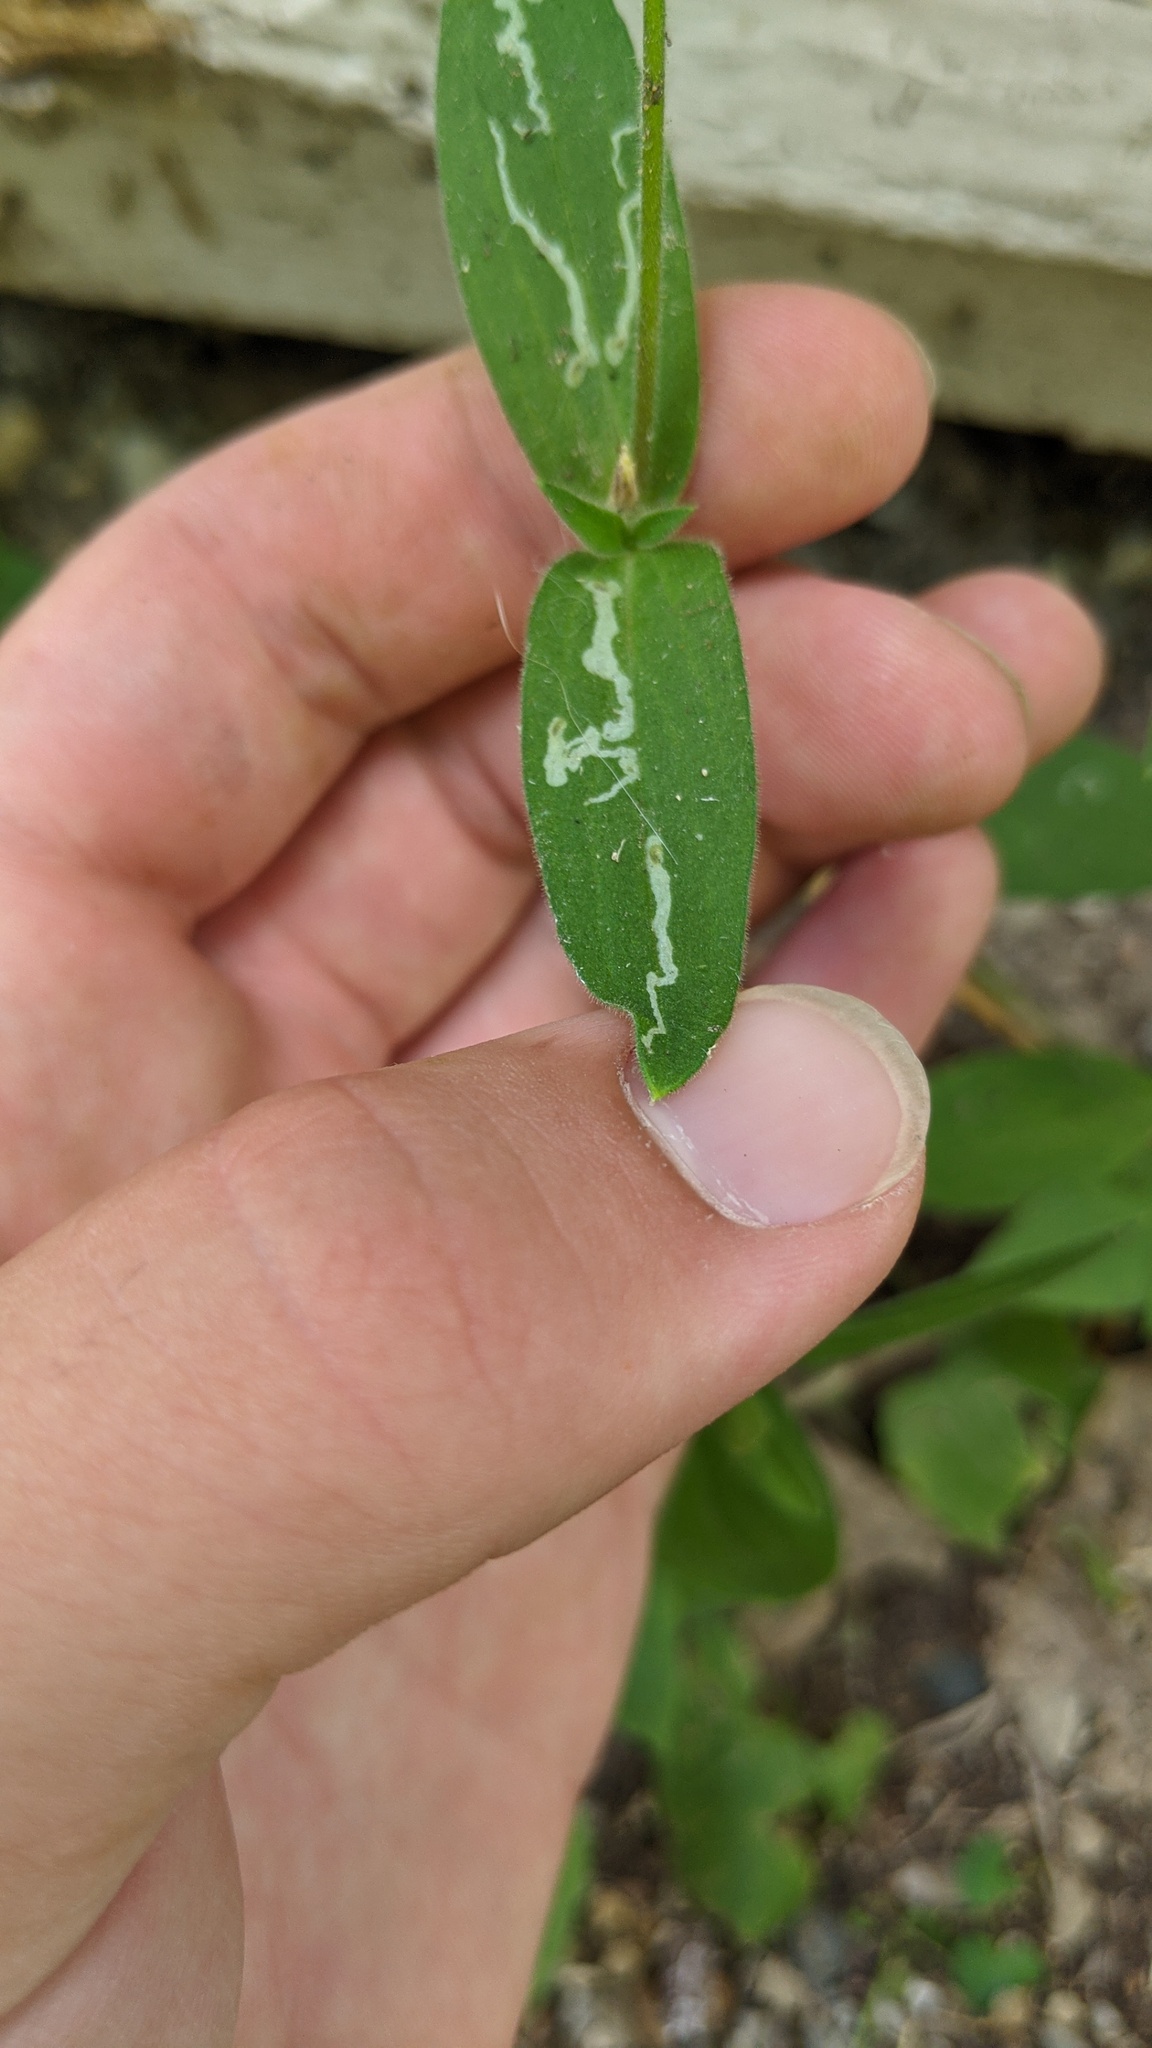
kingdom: Animalia
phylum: Arthropoda
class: Insecta
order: Diptera
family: Agromyzidae
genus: Amauromyza
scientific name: Amauromyza flavifrons
